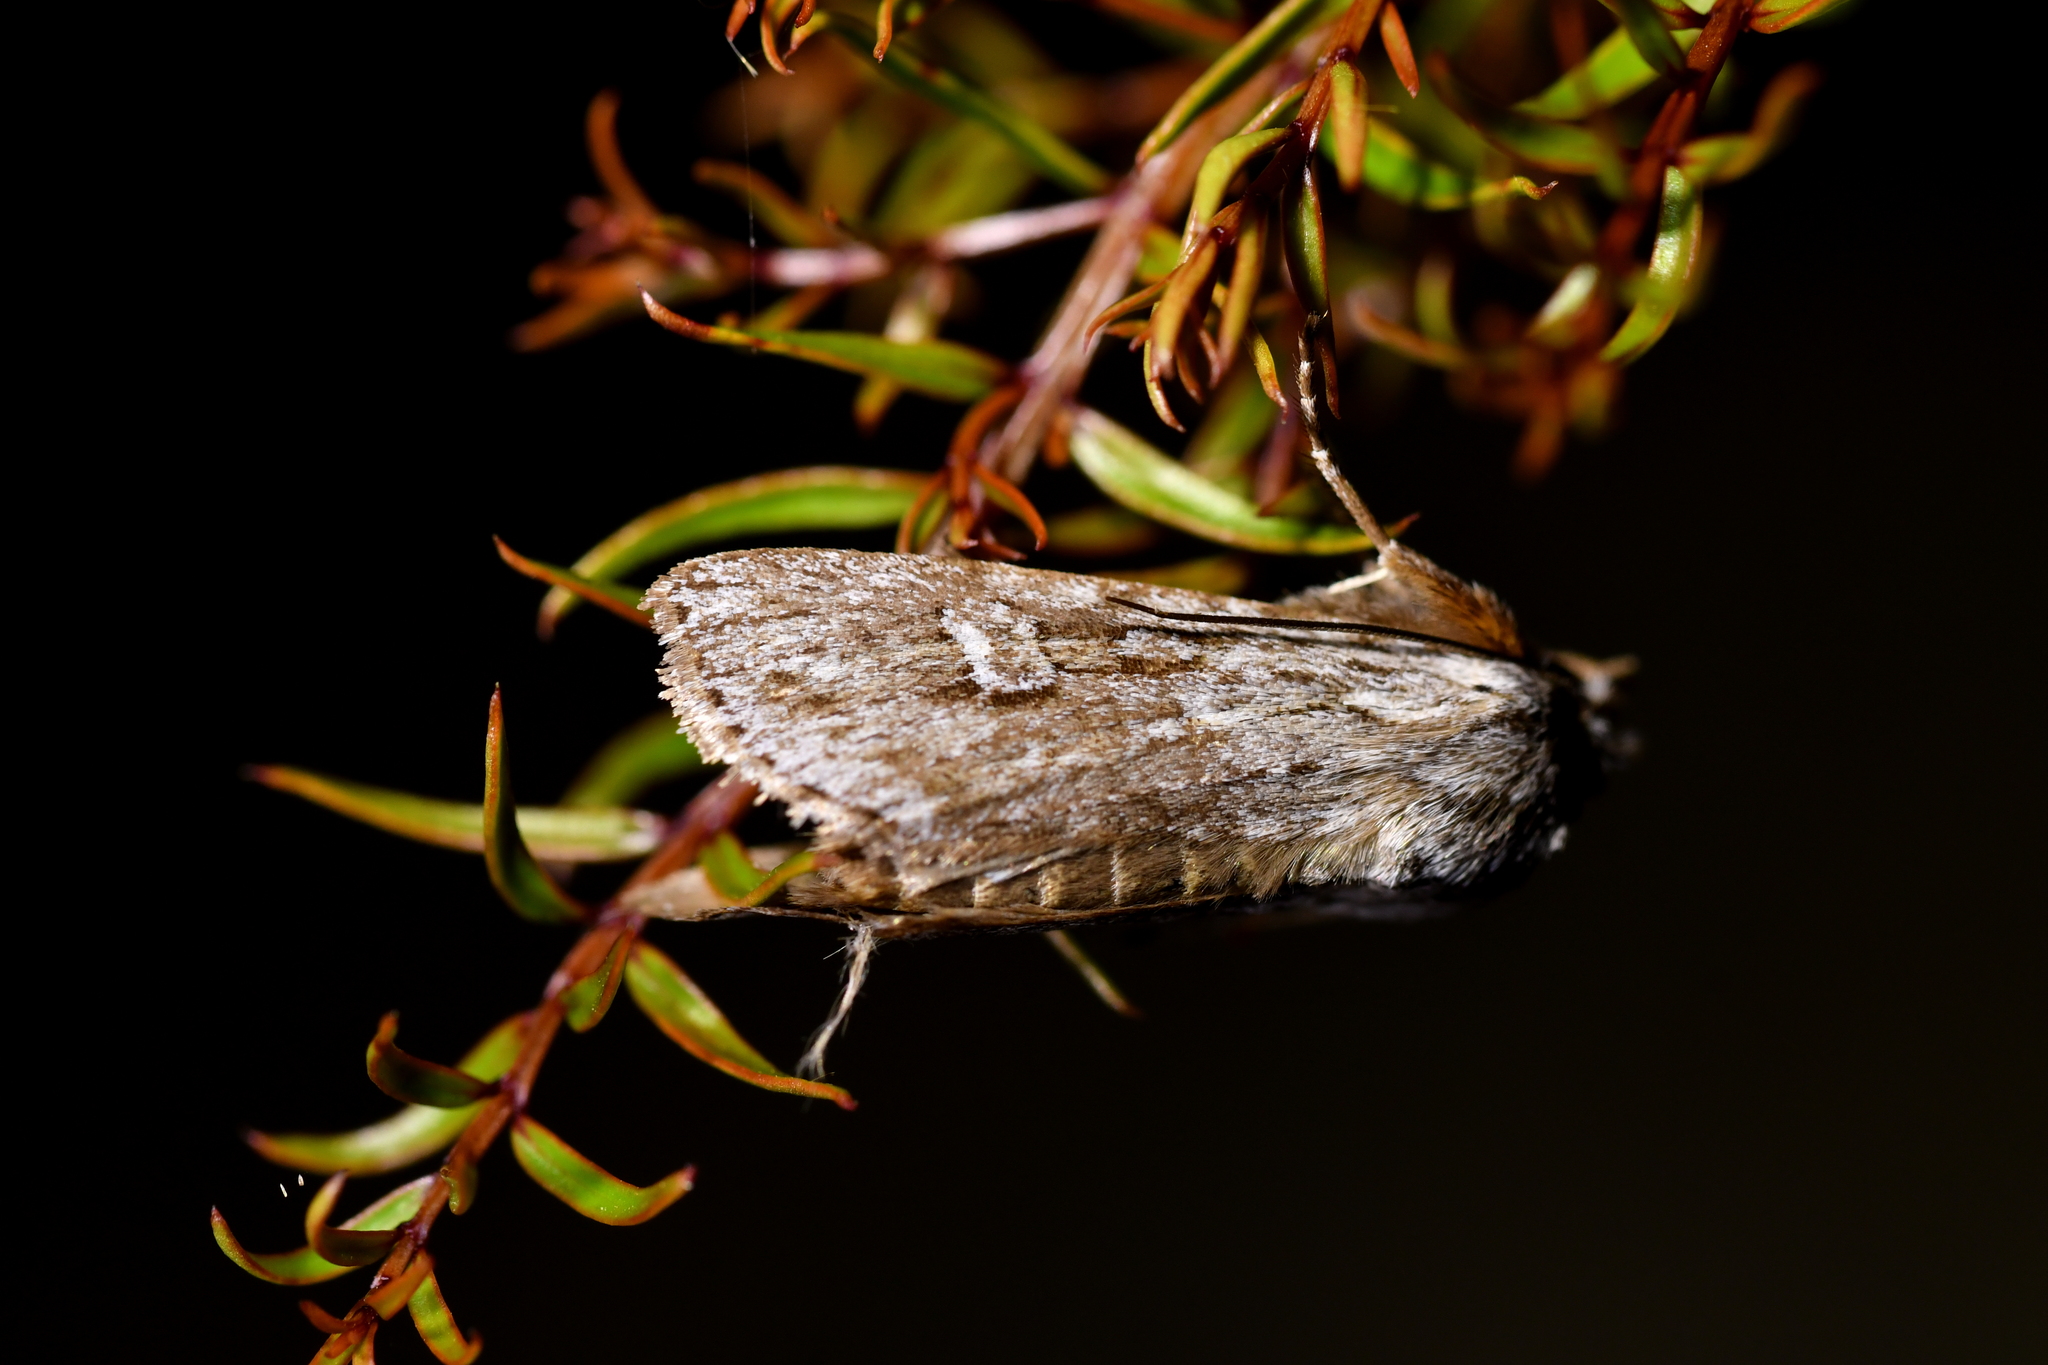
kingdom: Animalia
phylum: Arthropoda
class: Insecta
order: Lepidoptera
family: Noctuidae
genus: Physetica
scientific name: Physetica sequens
